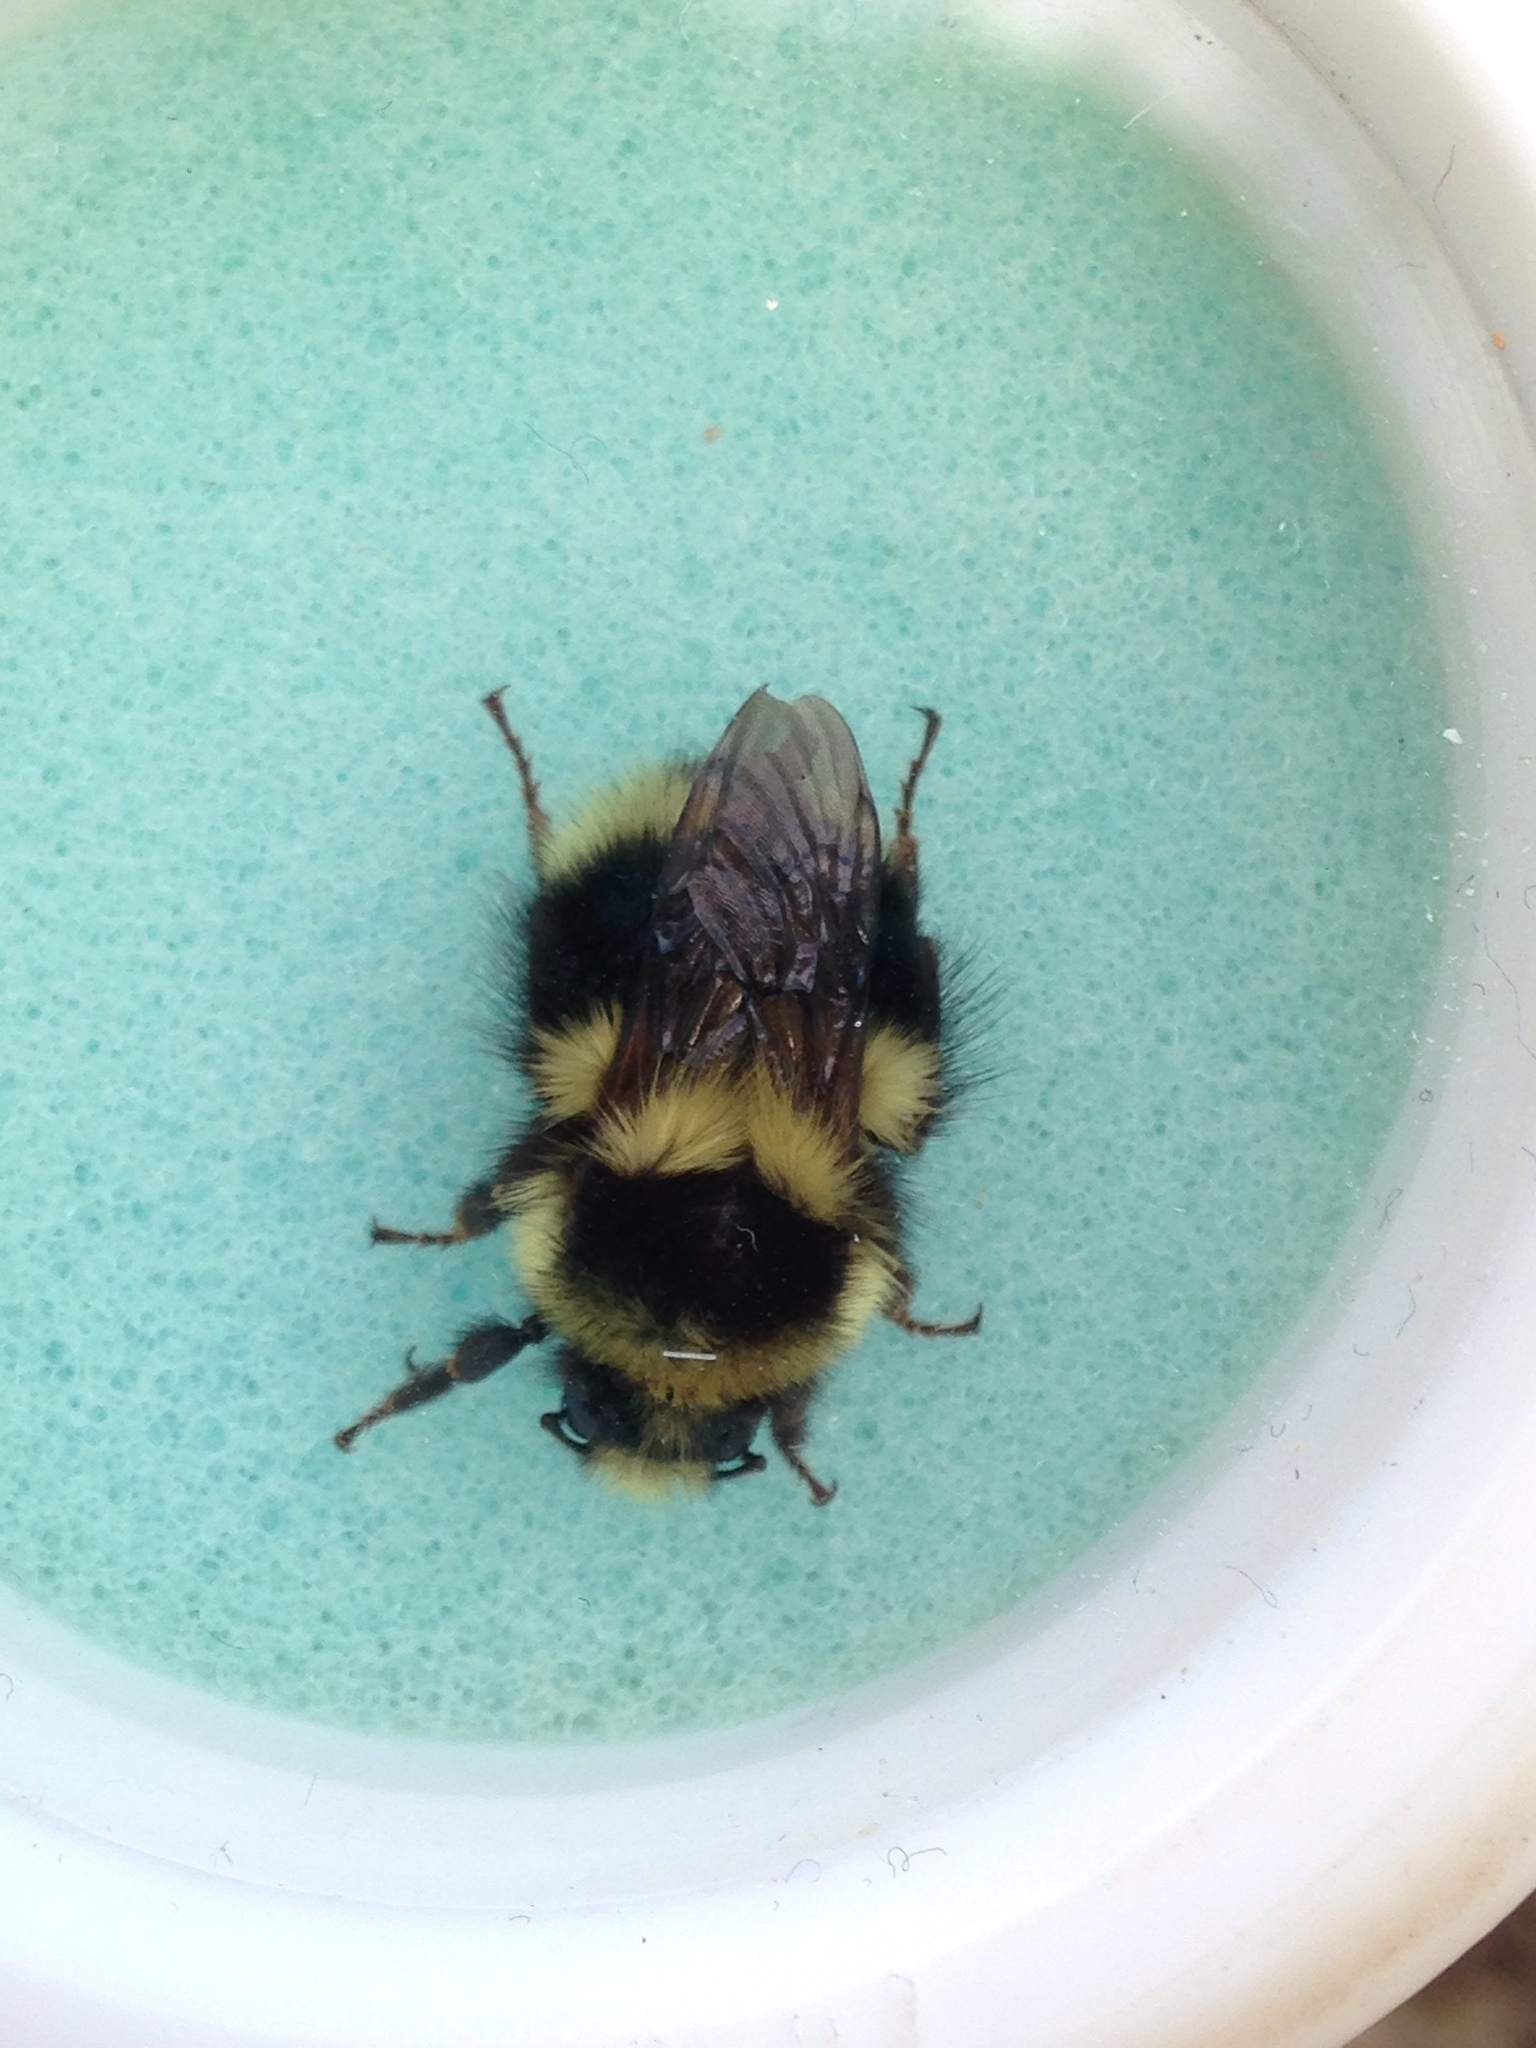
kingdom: Animalia
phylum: Arthropoda
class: Insecta
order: Hymenoptera
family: Apidae
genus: Bombus
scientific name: Bombus melanopygus
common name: Black tail bumble bee
